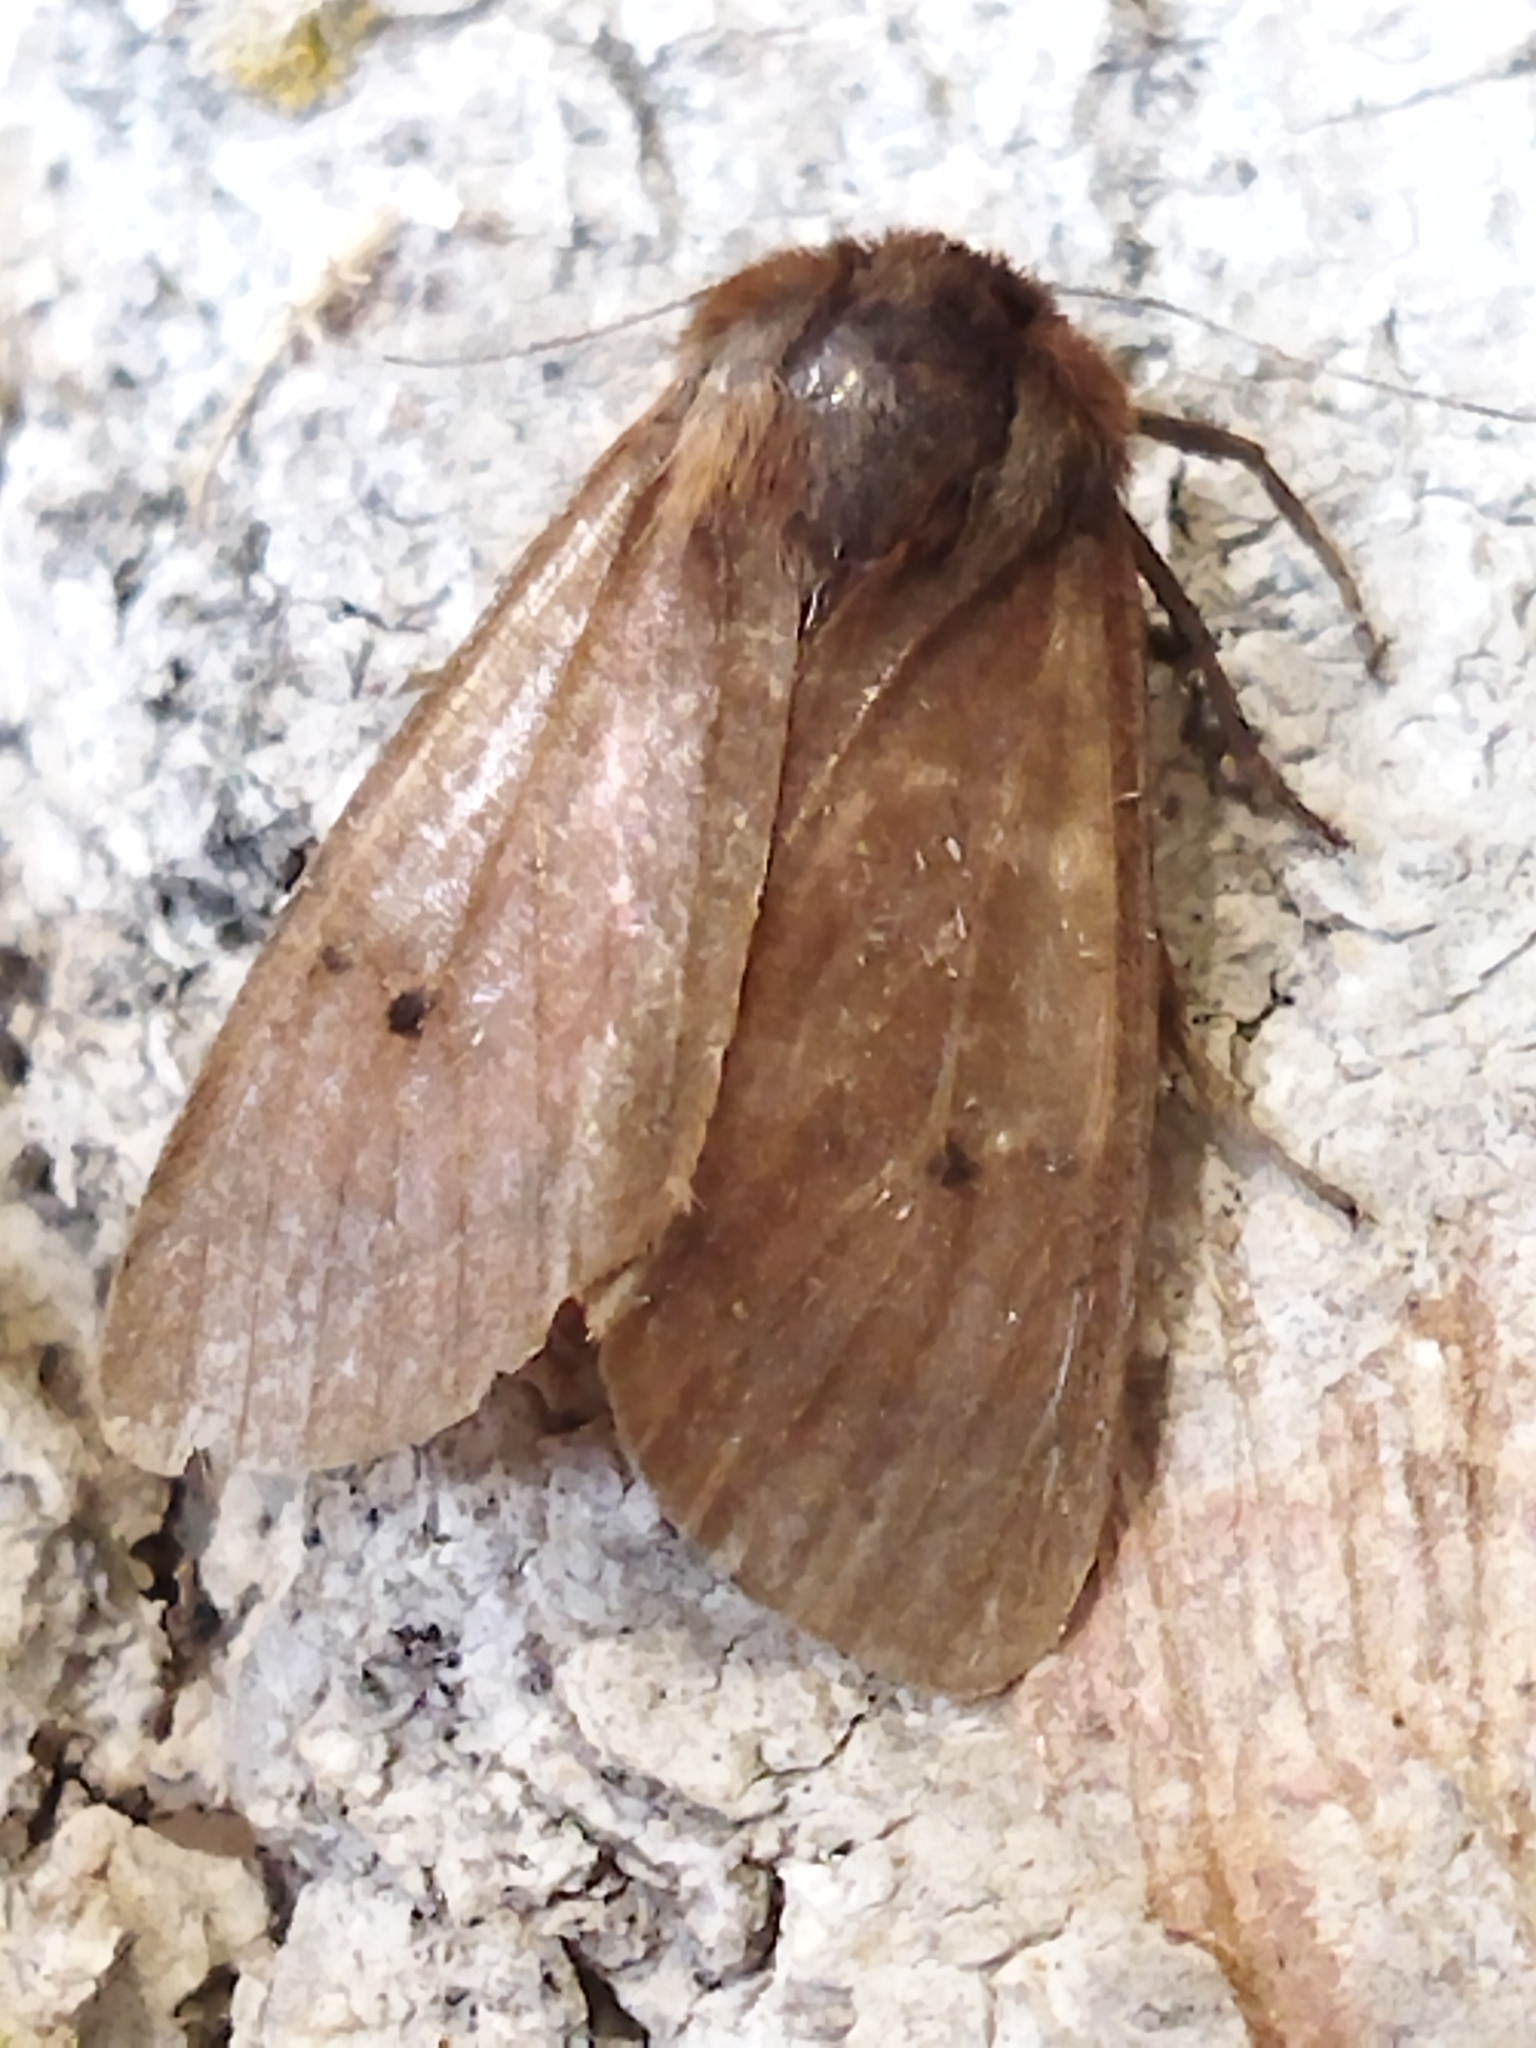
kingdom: Animalia
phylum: Arthropoda
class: Insecta
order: Lepidoptera
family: Erebidae
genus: Phragmatobia
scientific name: Phragmatobia fuliginosa
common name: Ruby tiger
